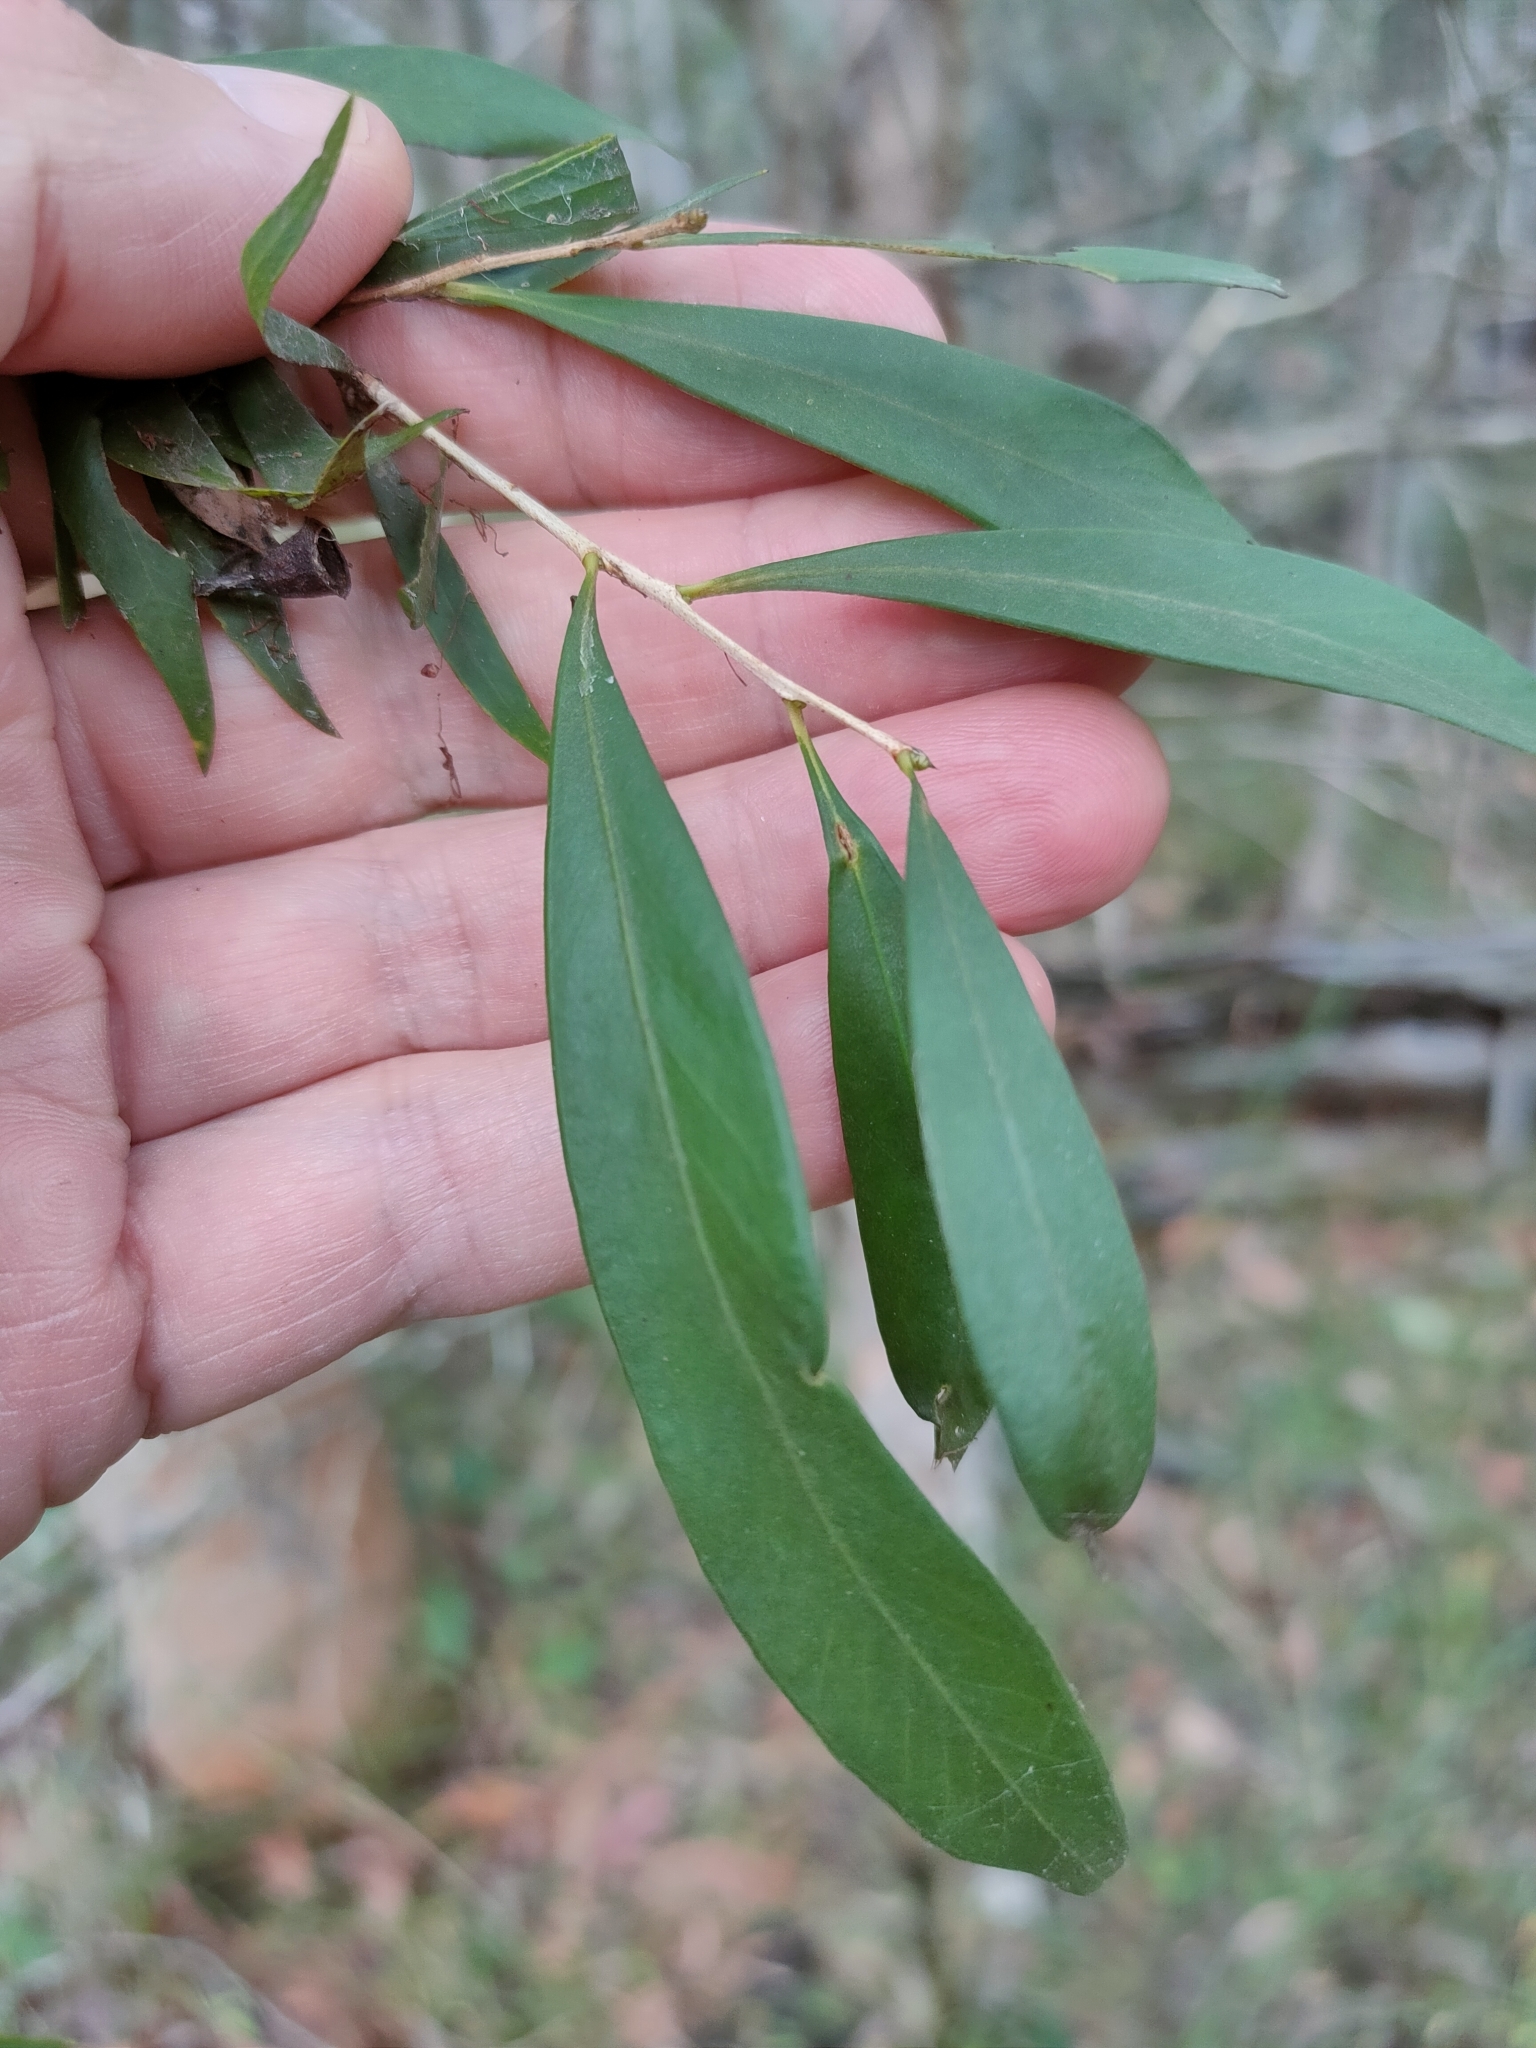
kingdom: Plantae
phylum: Tracheophyta
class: Magnoliopsida
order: Myrtales
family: Myrtaceae
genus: Callistemon
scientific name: Callistemon salignus
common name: White bottlebrush
